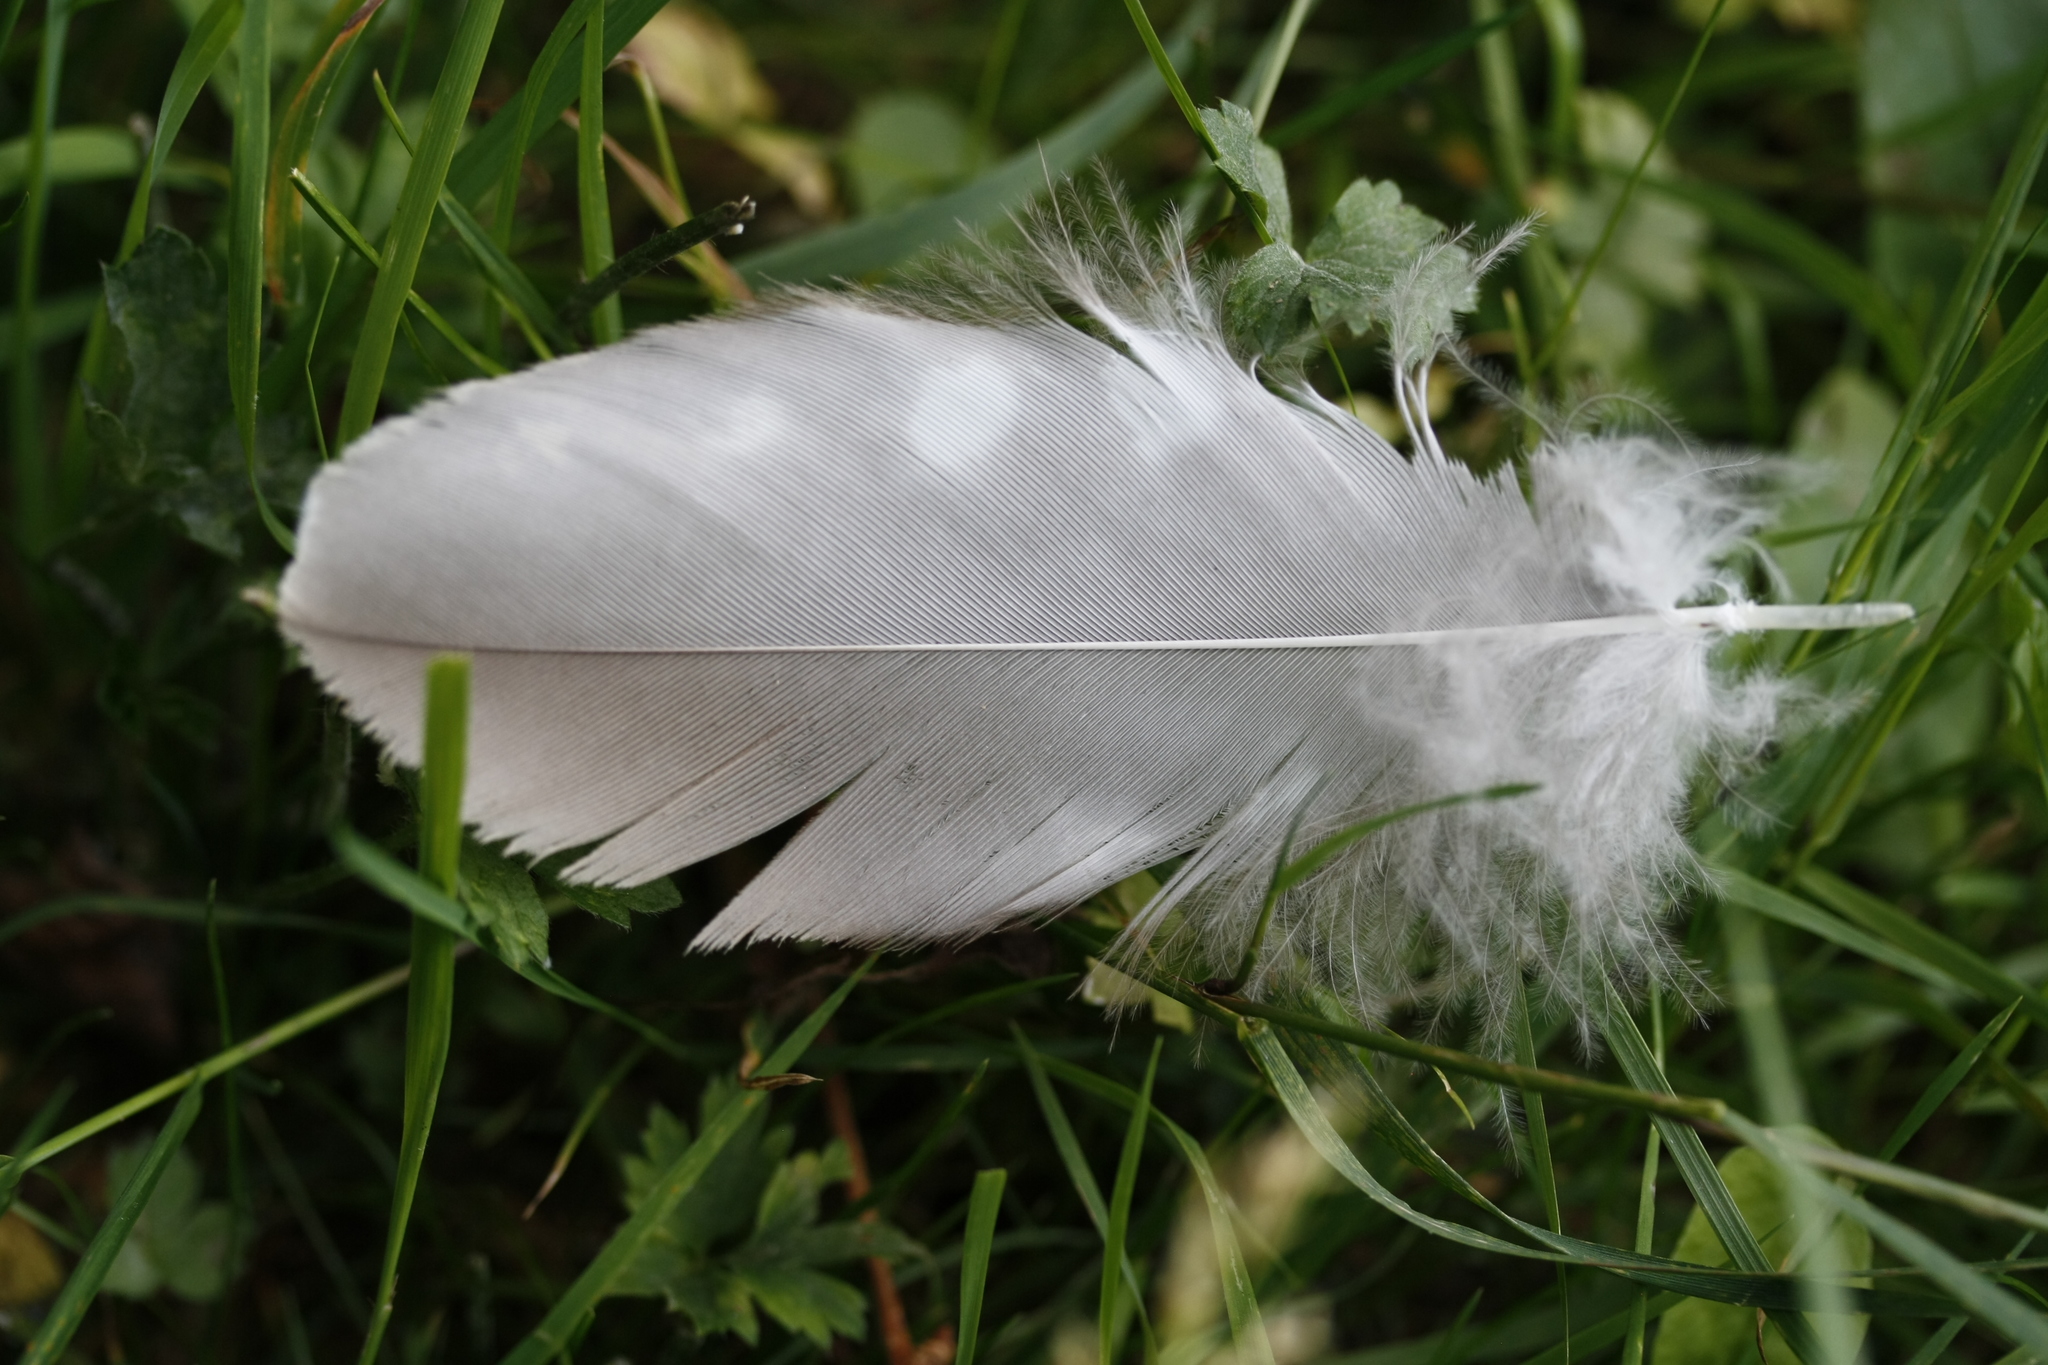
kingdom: Animalia
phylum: Chordata
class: Aves
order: Accipitriformes
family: Accipitridae
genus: Buteo
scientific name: Buteo buteo
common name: Common buzzard
